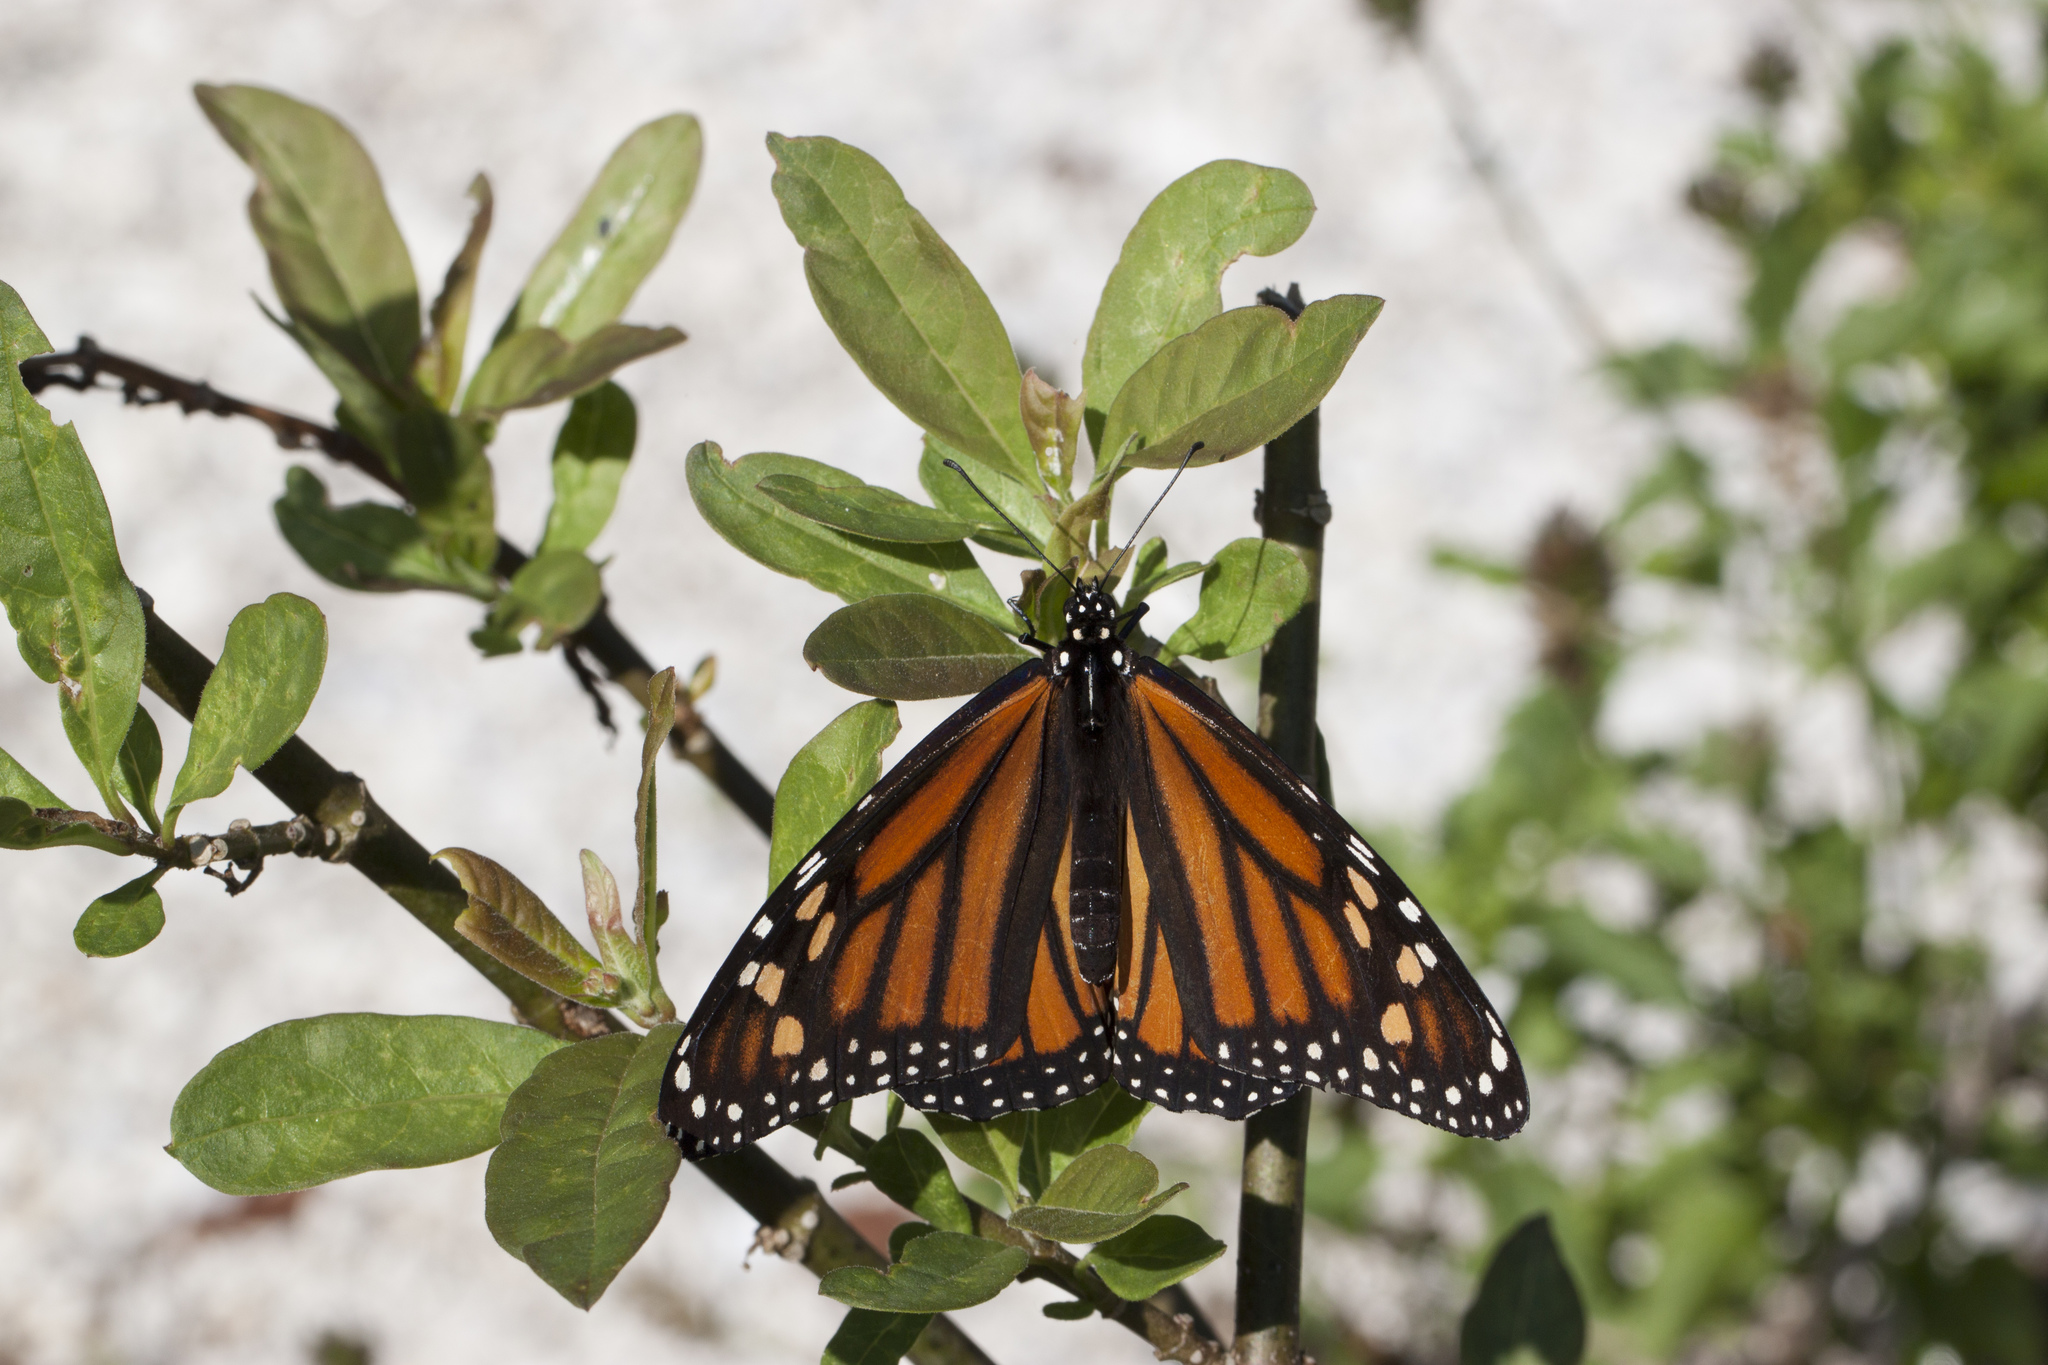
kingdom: Animalia
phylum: Arthropoda
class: Insecta
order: Lepidoptera
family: Nymphalidae
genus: Danaus
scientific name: Danaus plexippus
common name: Monarch
